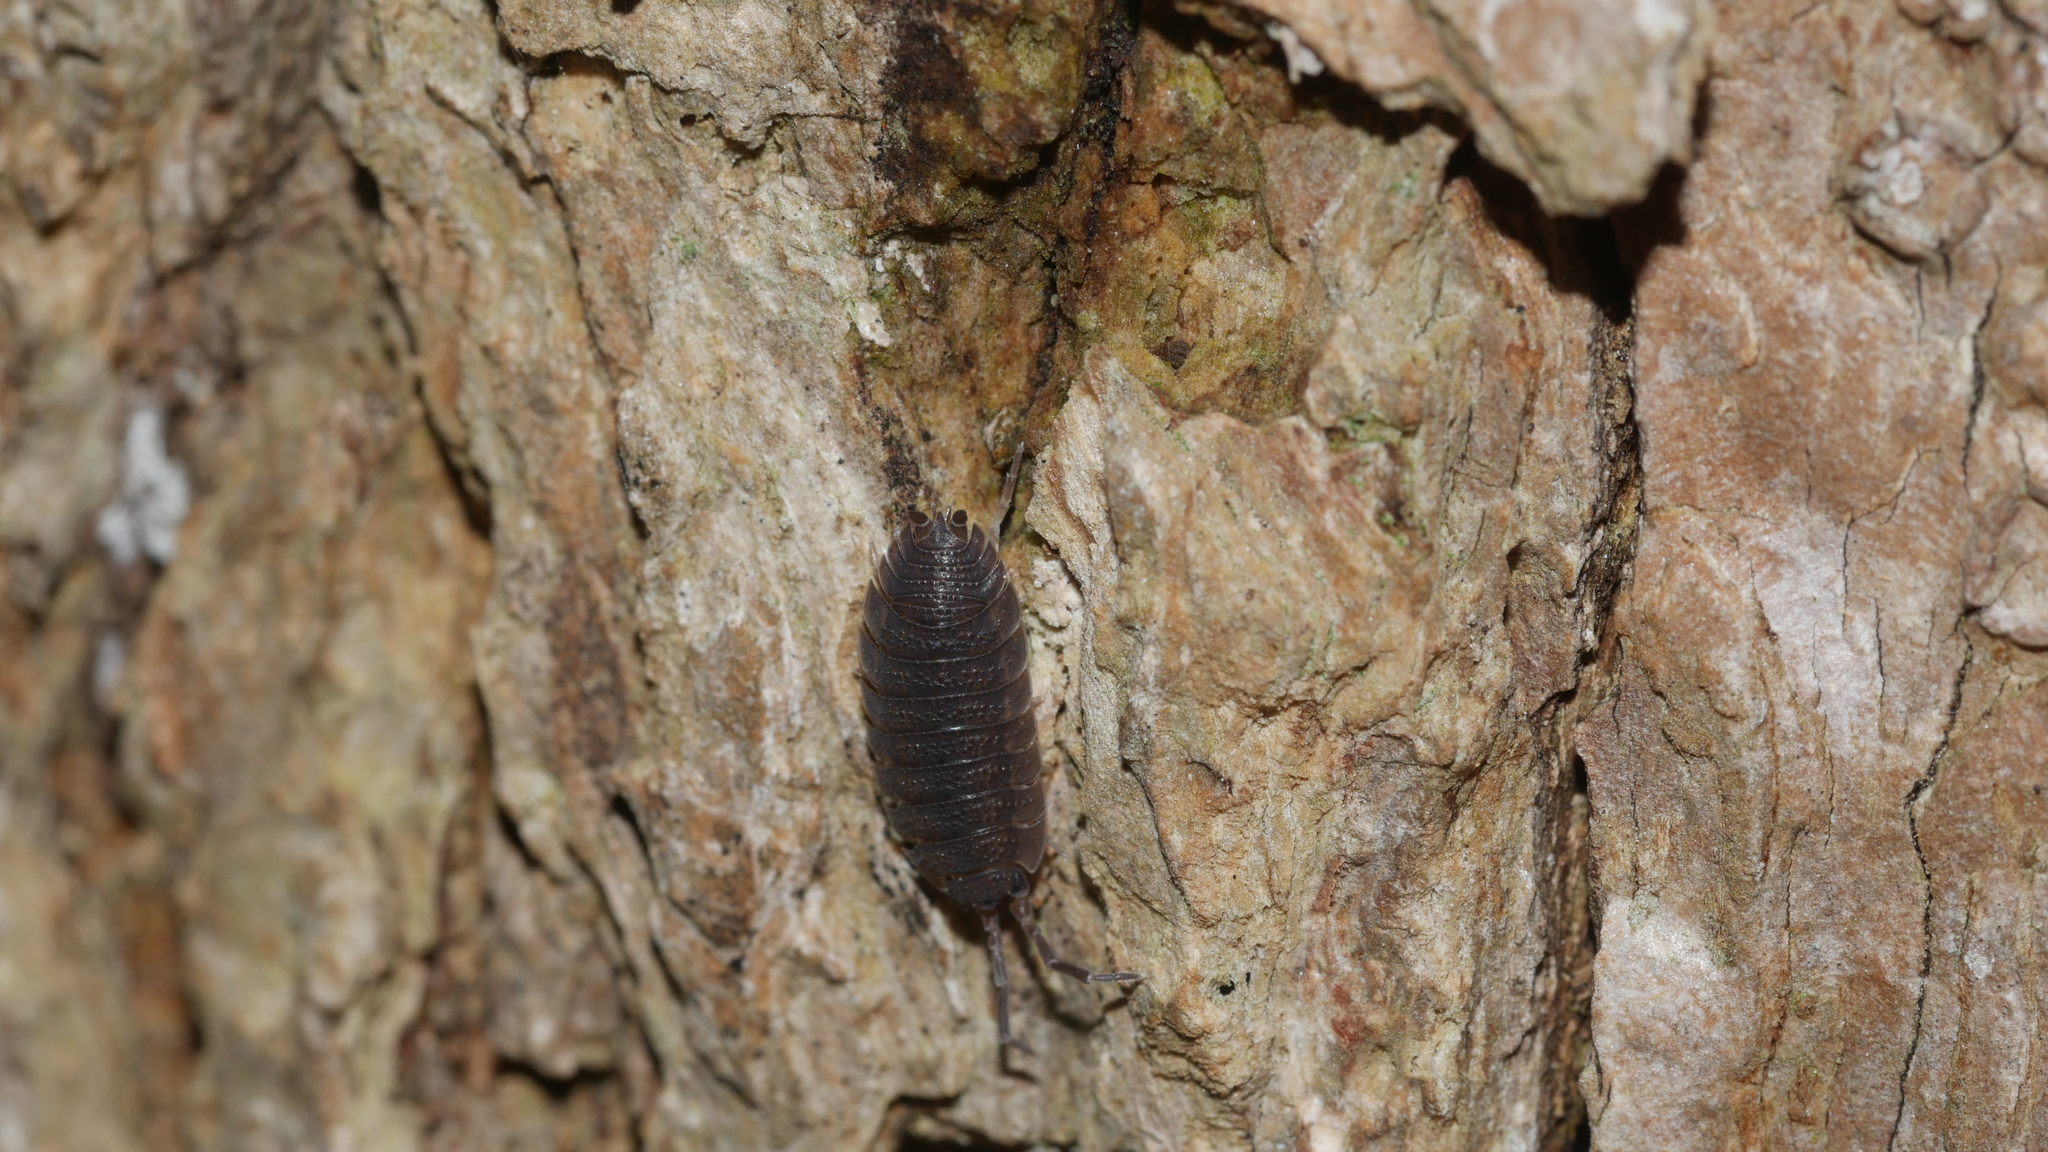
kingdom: Animalia
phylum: Arthropoda
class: Malacostraca
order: Isopoda
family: Porcellionidae
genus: Porcellio
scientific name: Porcellio scaber
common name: Common rough woodlouse
